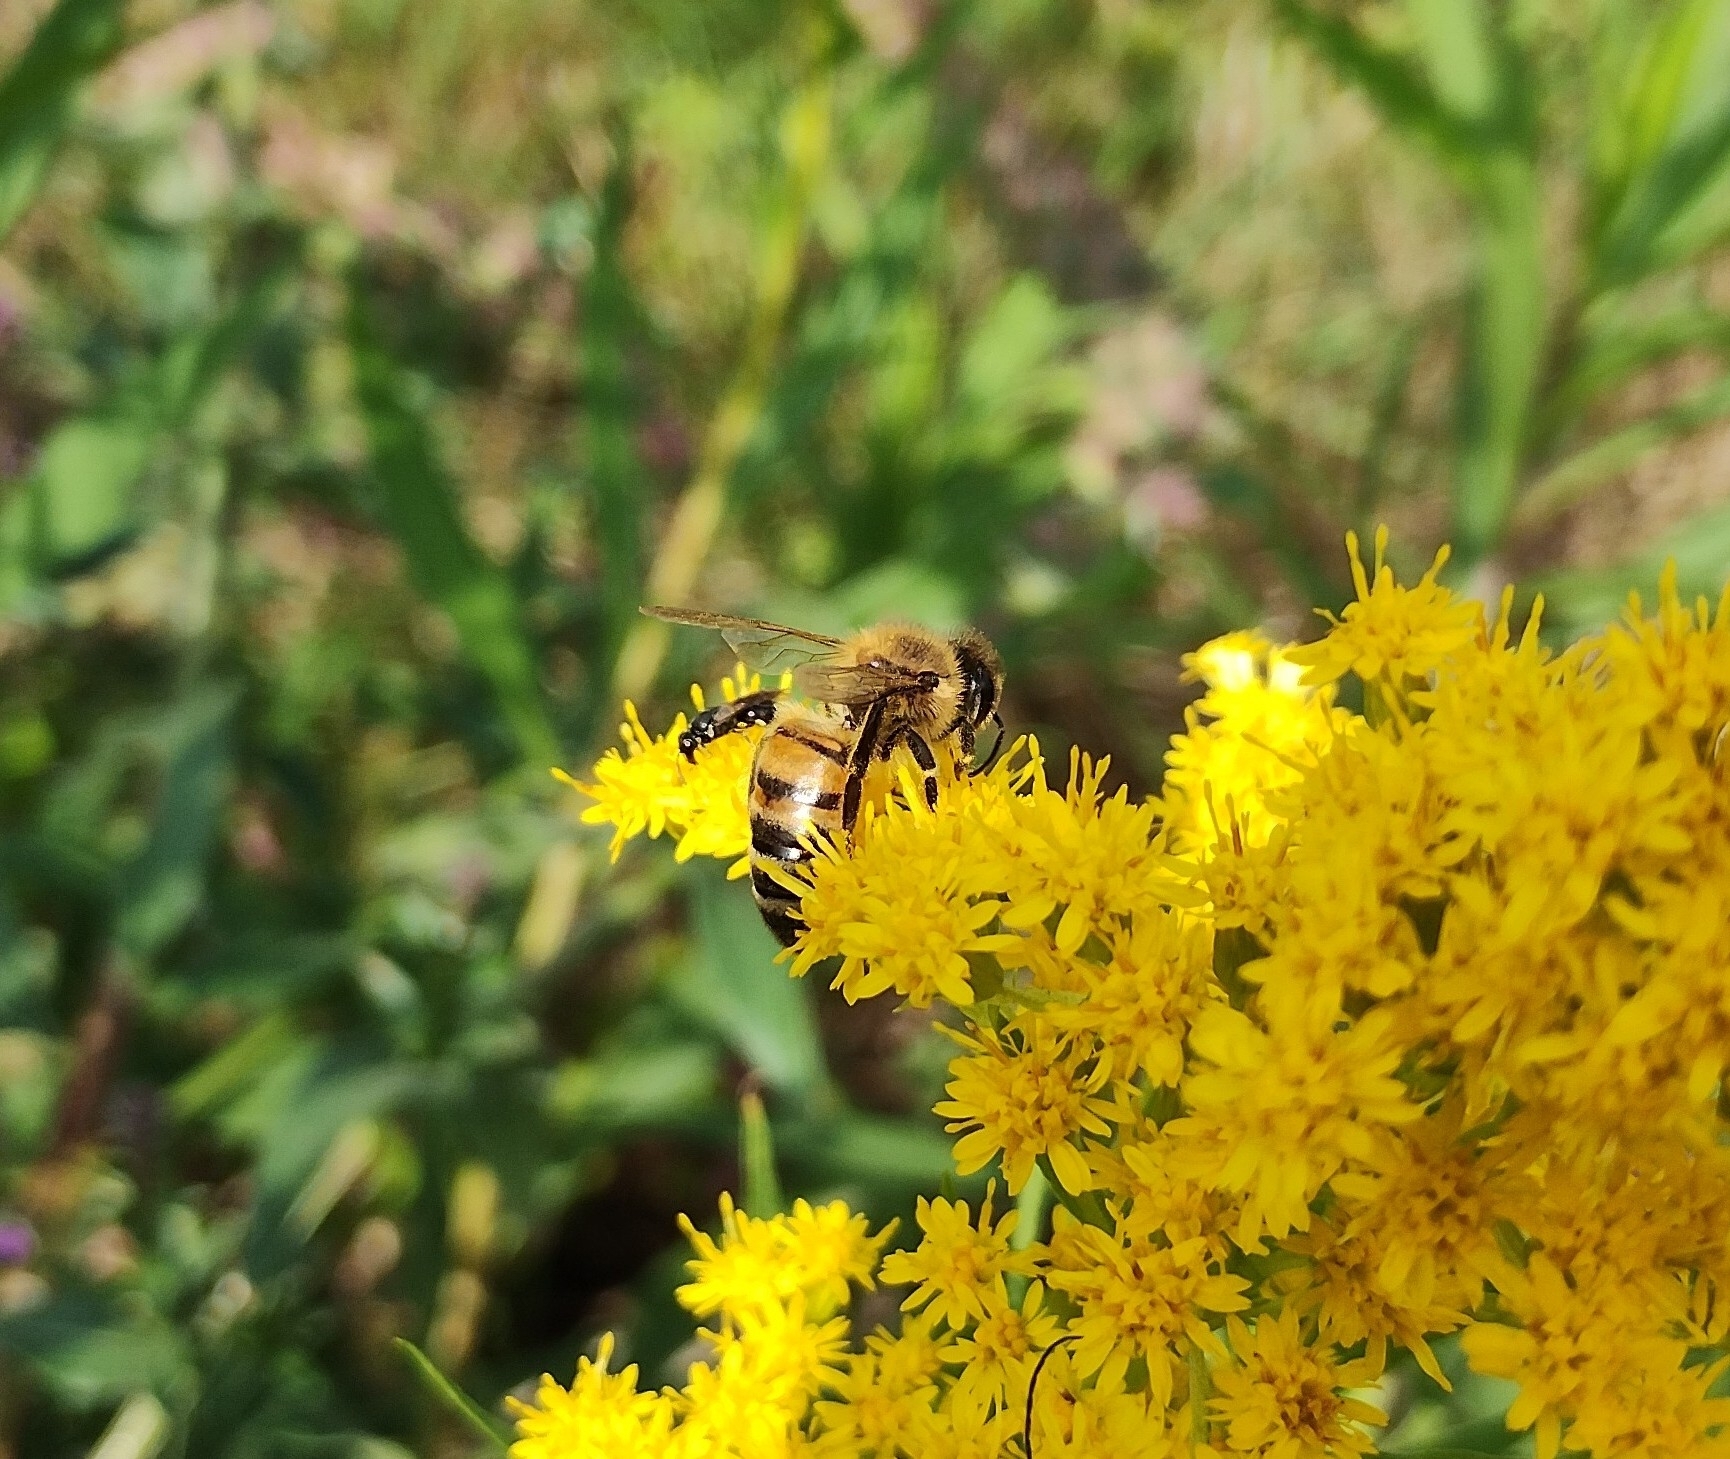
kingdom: Animalia
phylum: Arthropoda
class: Insecta
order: Hymenoptera
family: Apidae
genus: Apis
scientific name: Apis mellifera
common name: Honey bee
